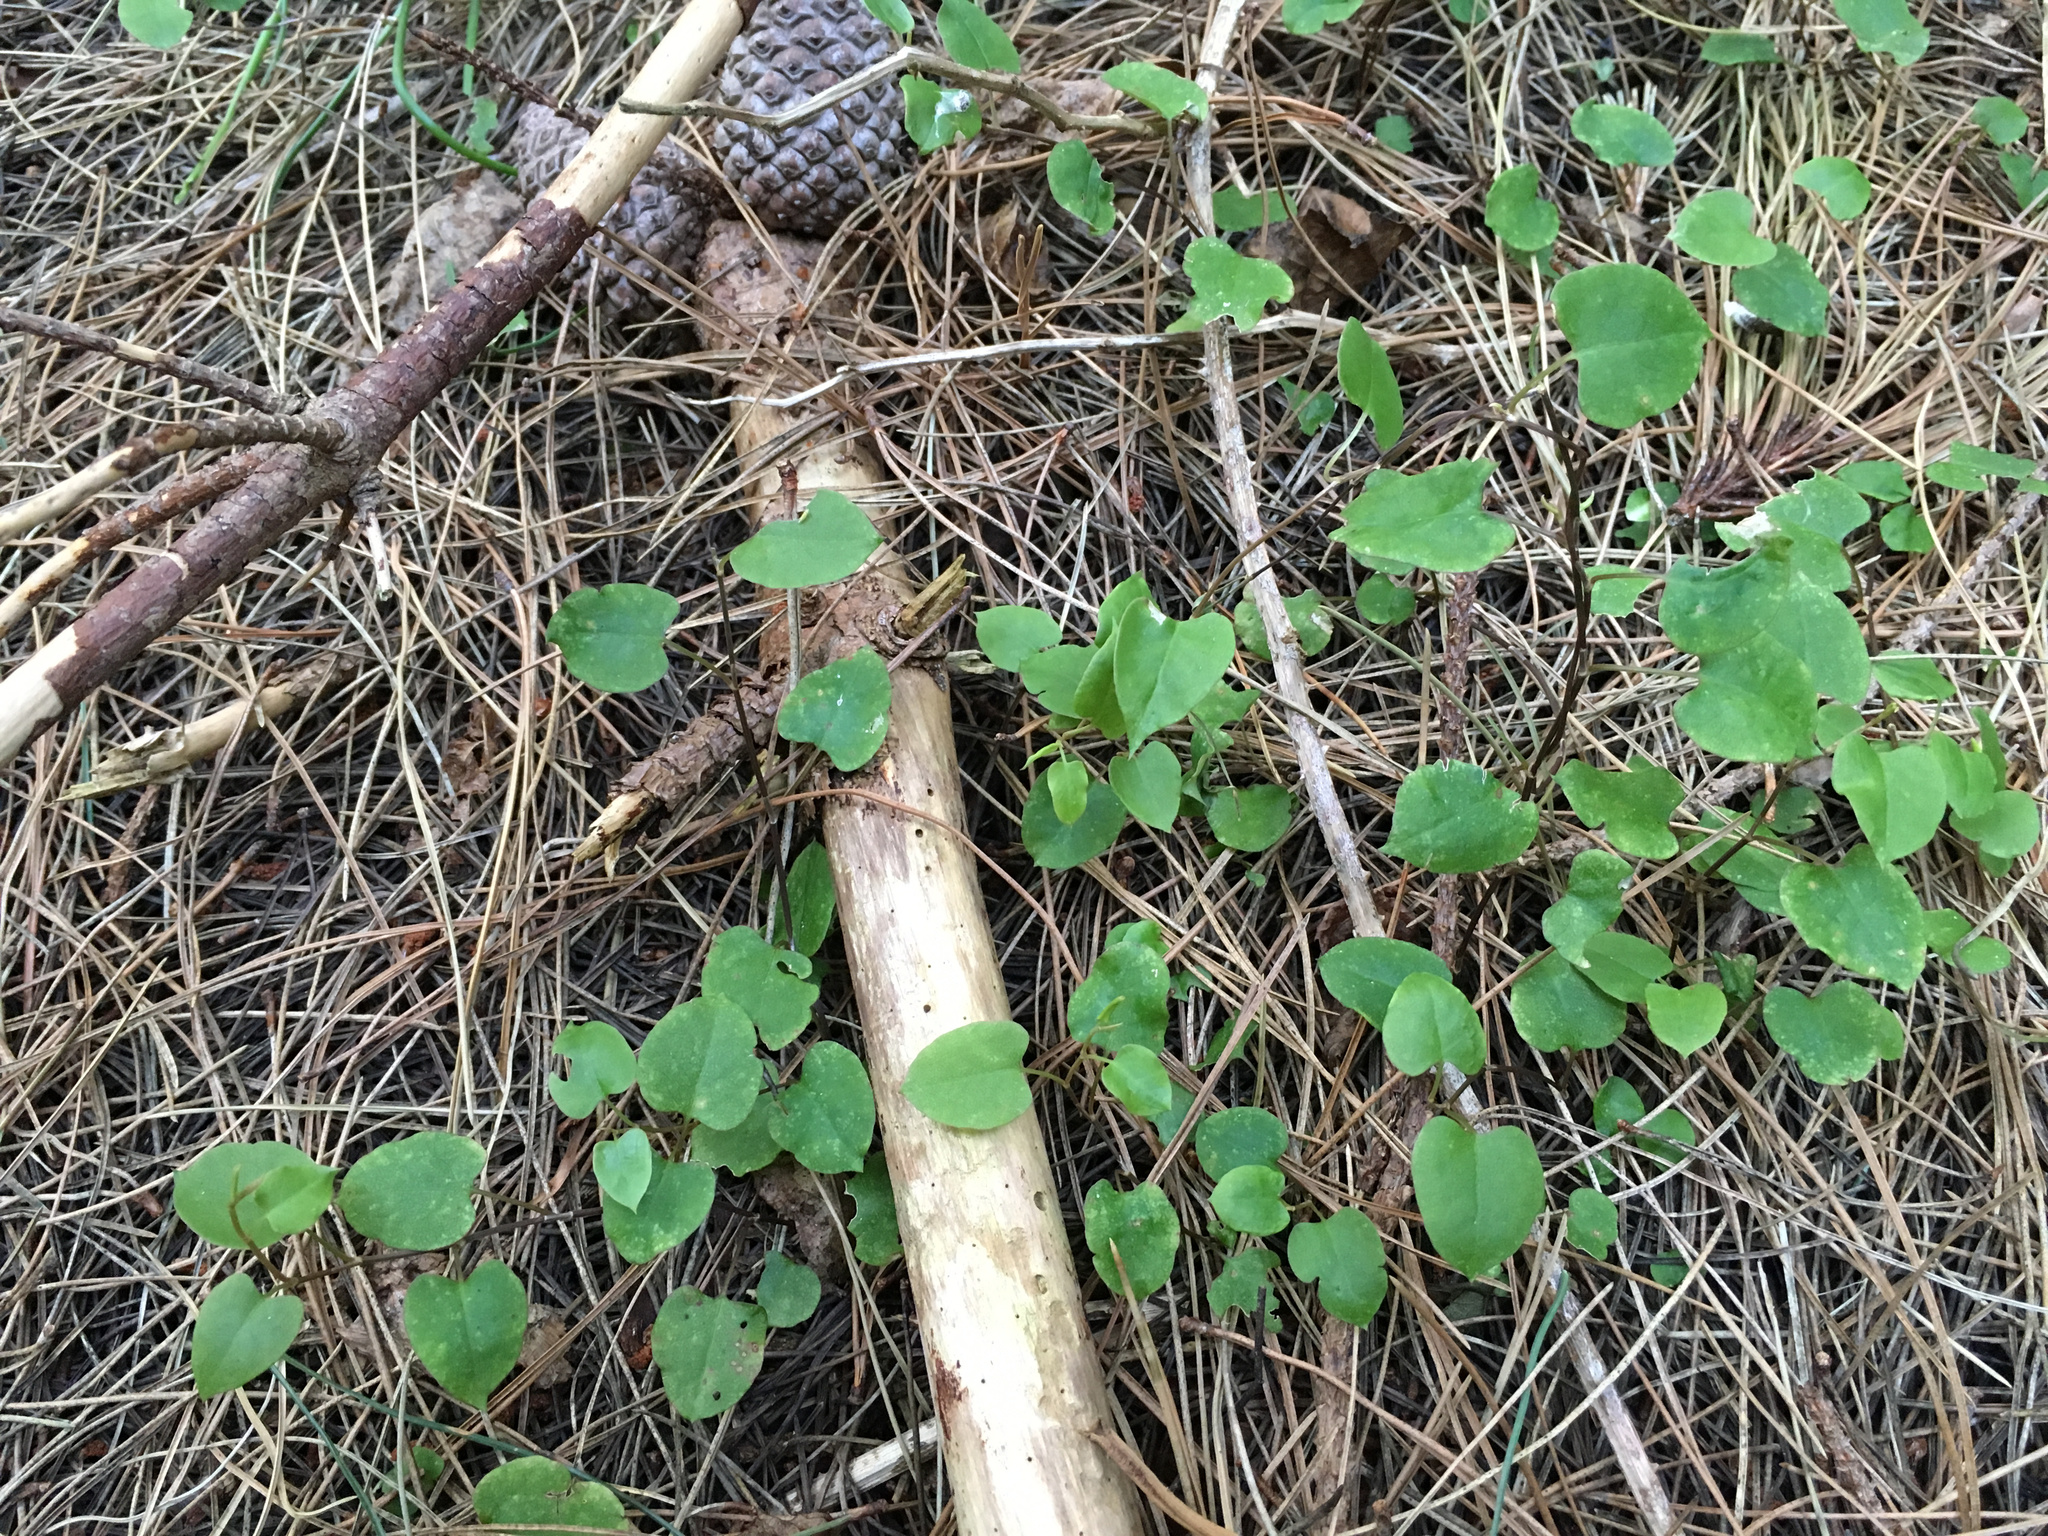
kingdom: Plantae
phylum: Tracheophyta
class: Magnoliopsida
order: Caryophyllales
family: Polygonaceae
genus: Muehlenbeckia
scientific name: Muehlenbeckia australis
